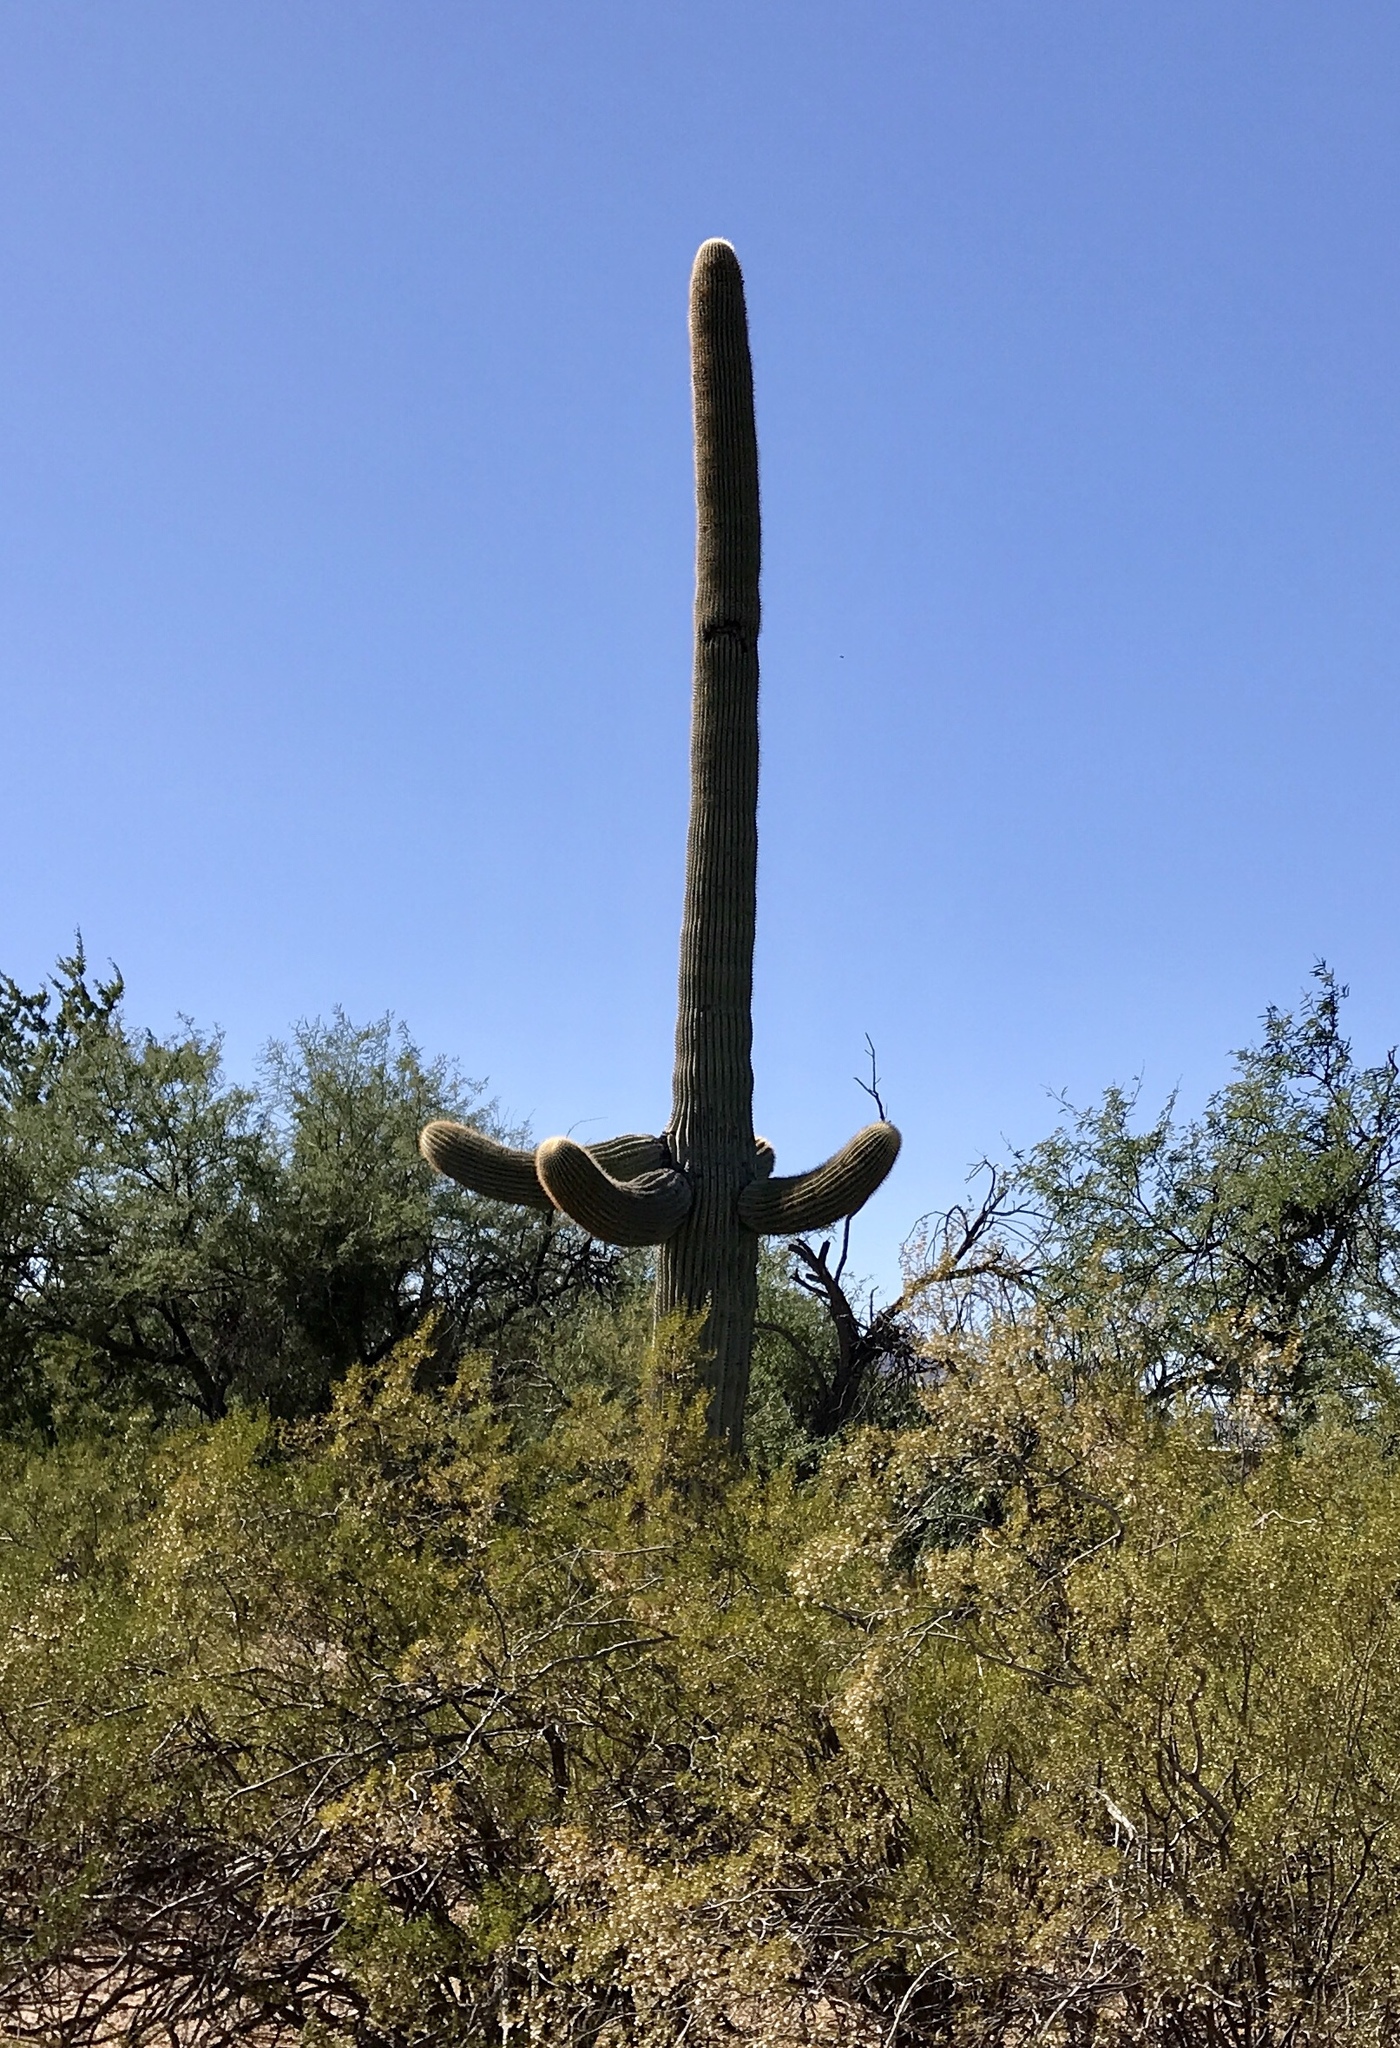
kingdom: Plantae
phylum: Tracheophyta
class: Magnoliopsida
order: Caryophyllales
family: Cactaceae
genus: Carnegiea
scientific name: Carnegiea gigantea
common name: Saguaro
